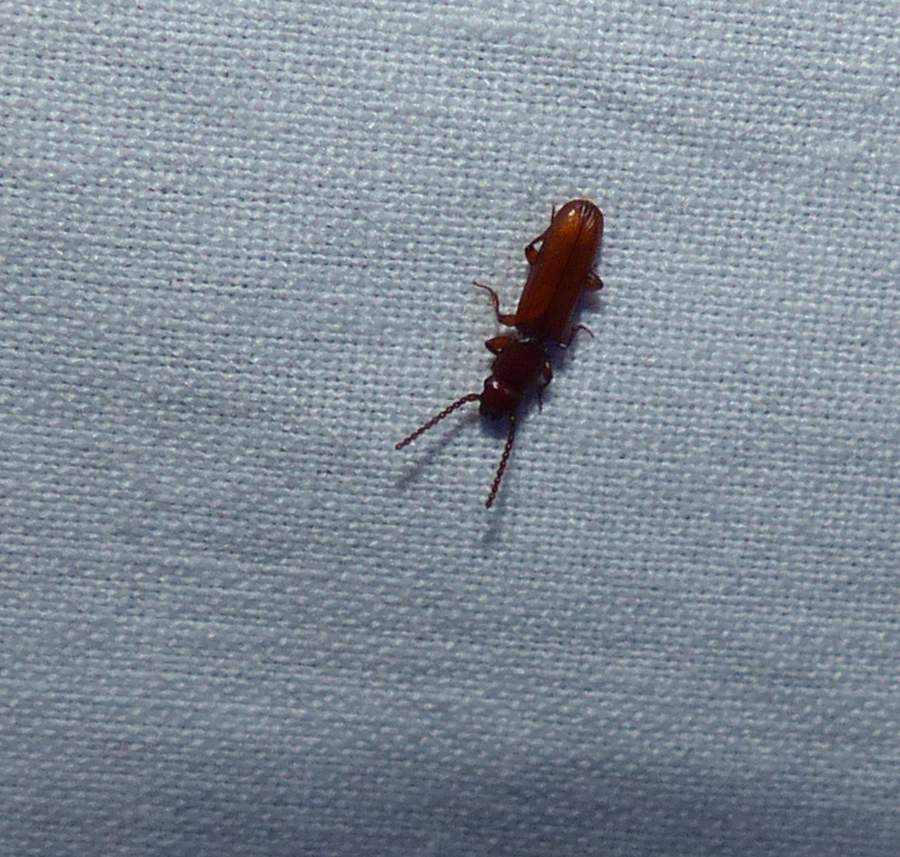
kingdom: Animalia
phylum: Arthropoda
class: Insecta
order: Coleoptera
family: Passandridae
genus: Catogenus
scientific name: Catogenus rufus
